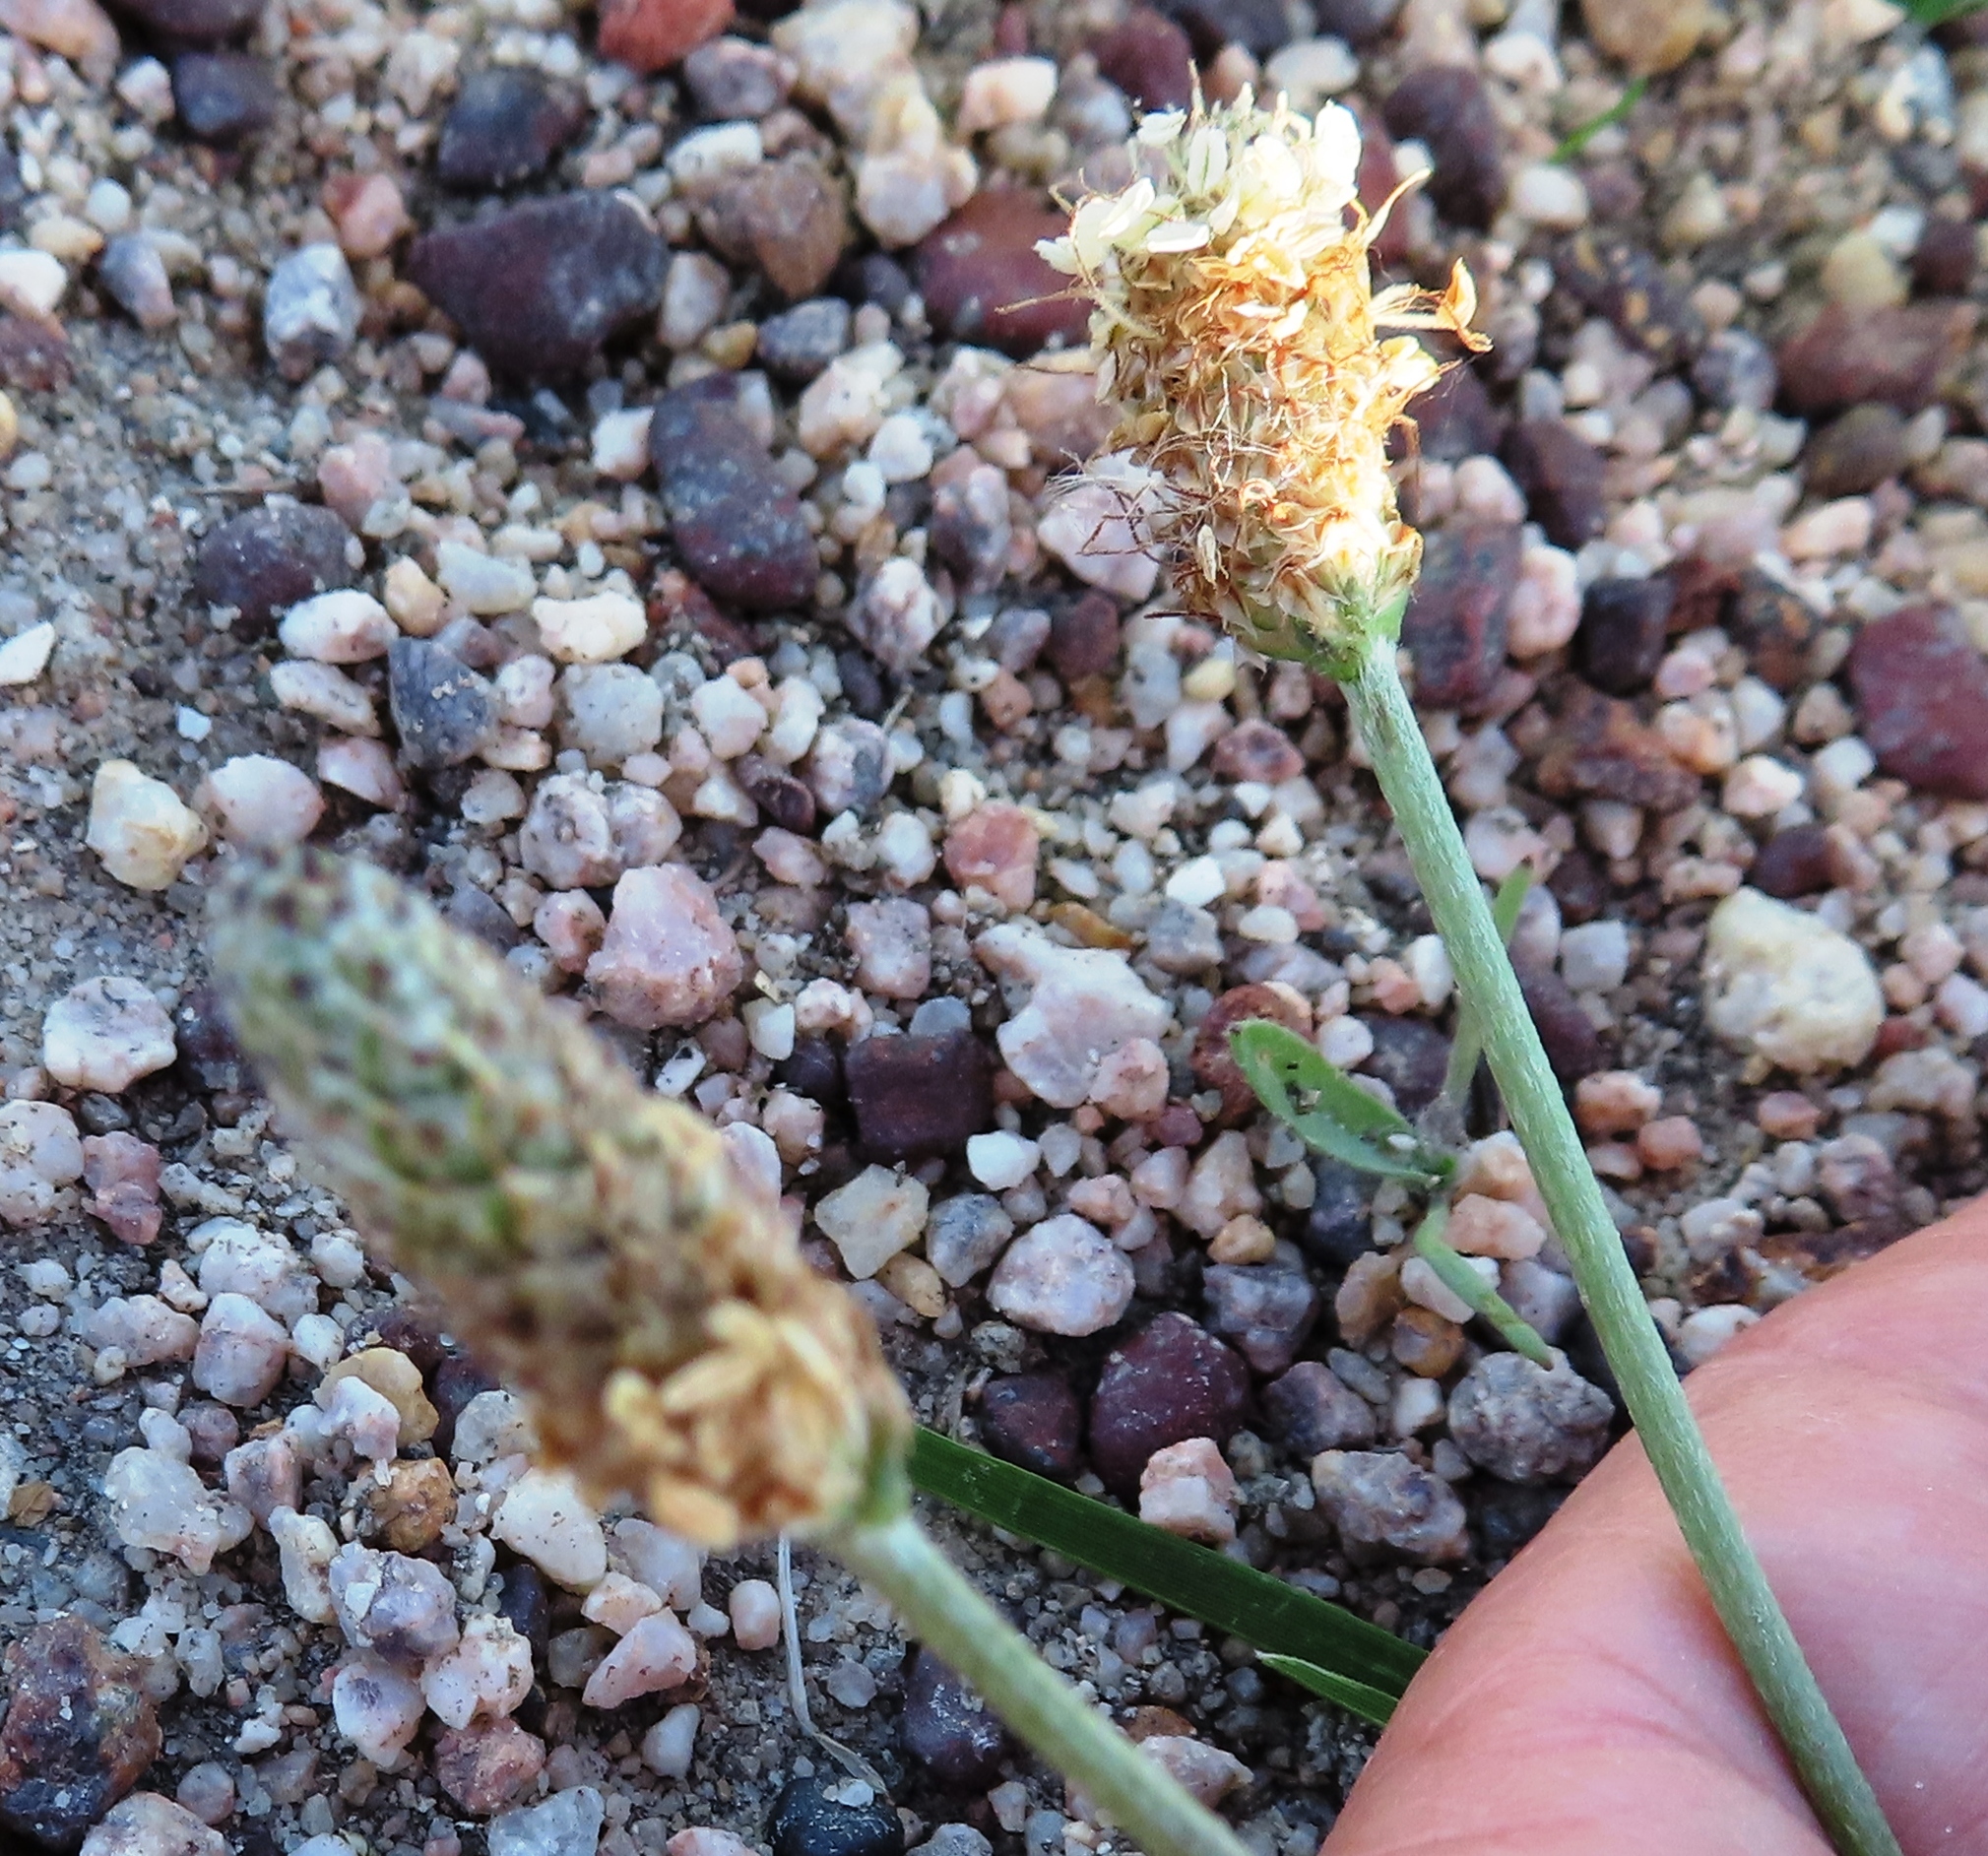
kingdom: Plantae
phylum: Tracheophyta
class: Magnoliopsida
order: Lamiales
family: Plantaginaceae
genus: Plantago
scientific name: Plantago lanceolata
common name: Ribwort plantain
